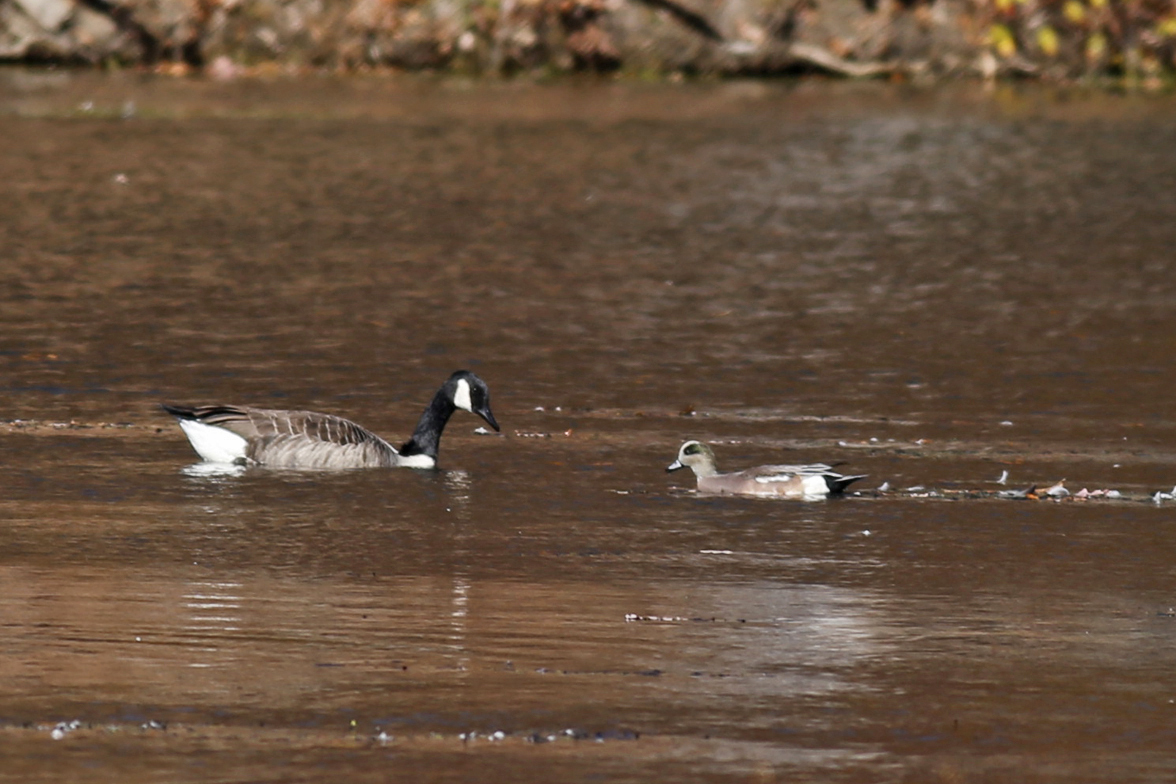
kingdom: Animalia
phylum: Chordata
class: Aves
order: Anseriformes
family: Anatidae
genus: Mareca
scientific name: Mareca americana
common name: American wigeon
